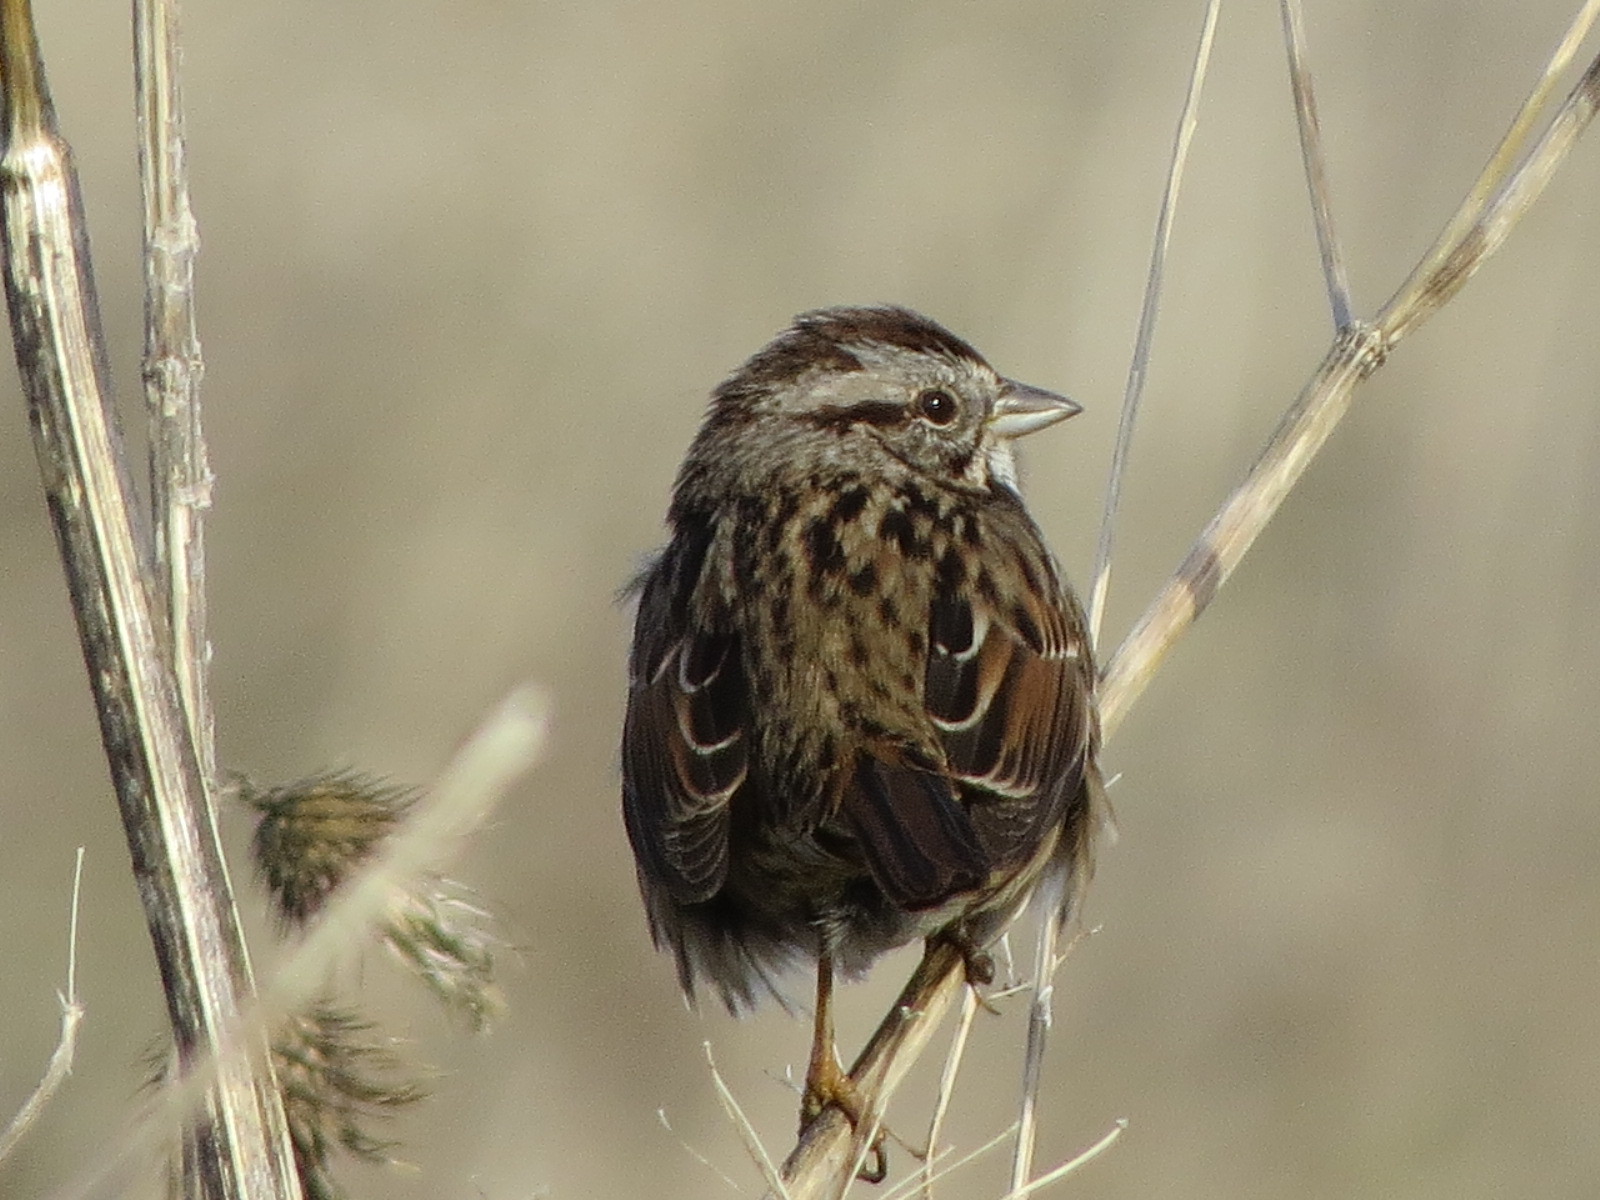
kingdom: Animalia
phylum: Chordata
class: Aves
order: Passeriformes
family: Passerellidae
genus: Melospiza
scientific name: Melospiza melodia
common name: Song sparrow
